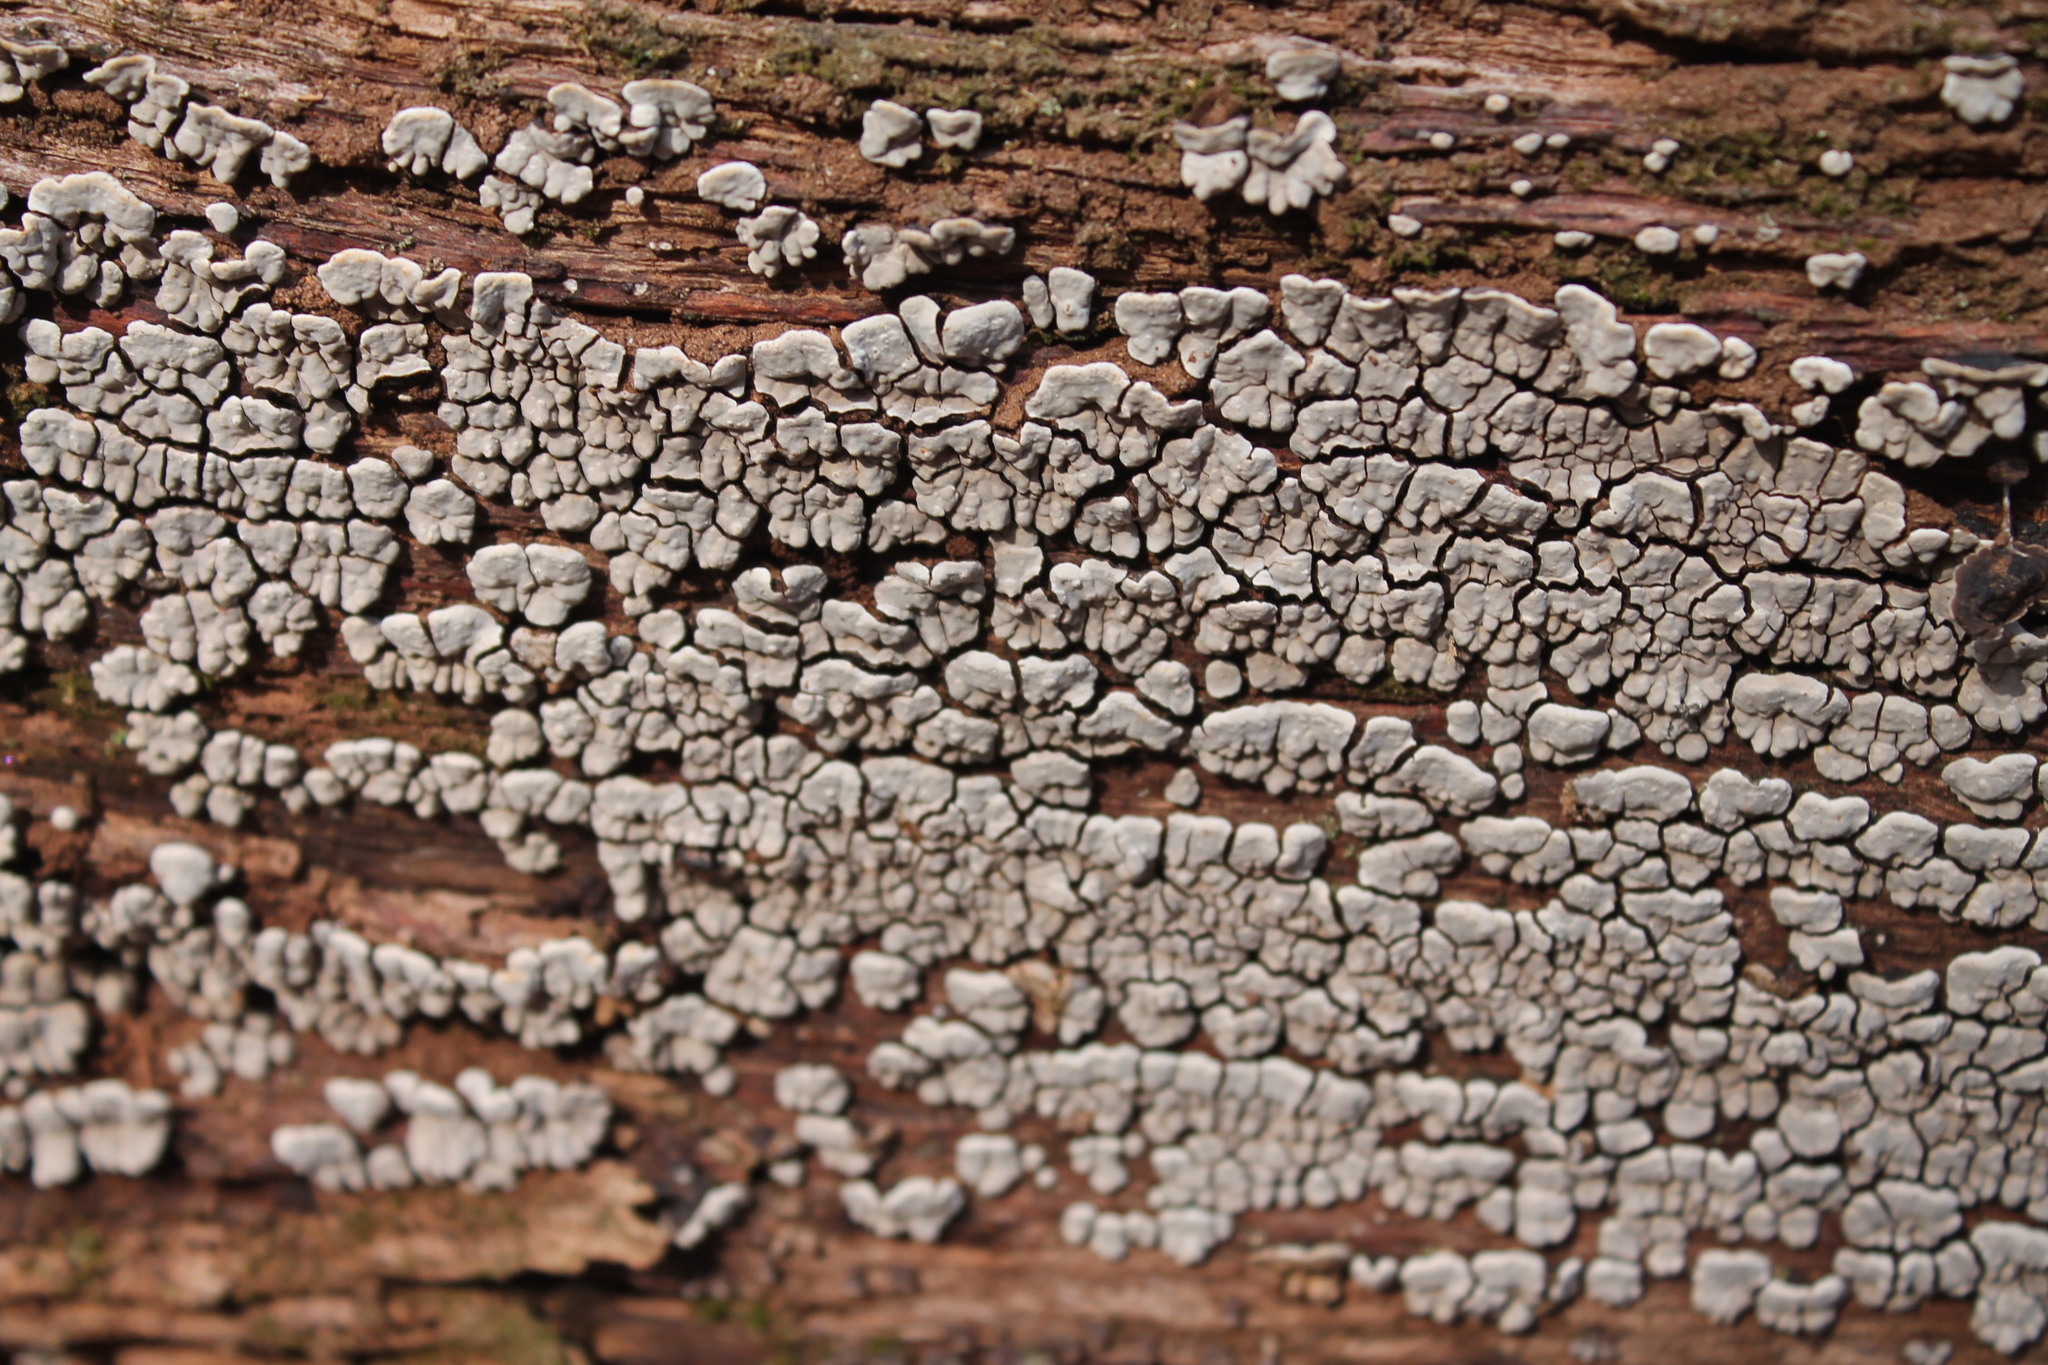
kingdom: Fungi
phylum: Basidiomycota
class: Agaricomycetes
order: Russulales
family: Stereaceae
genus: Xylobolus
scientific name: Xylobolus frustulatus
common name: Ceramic parchment
